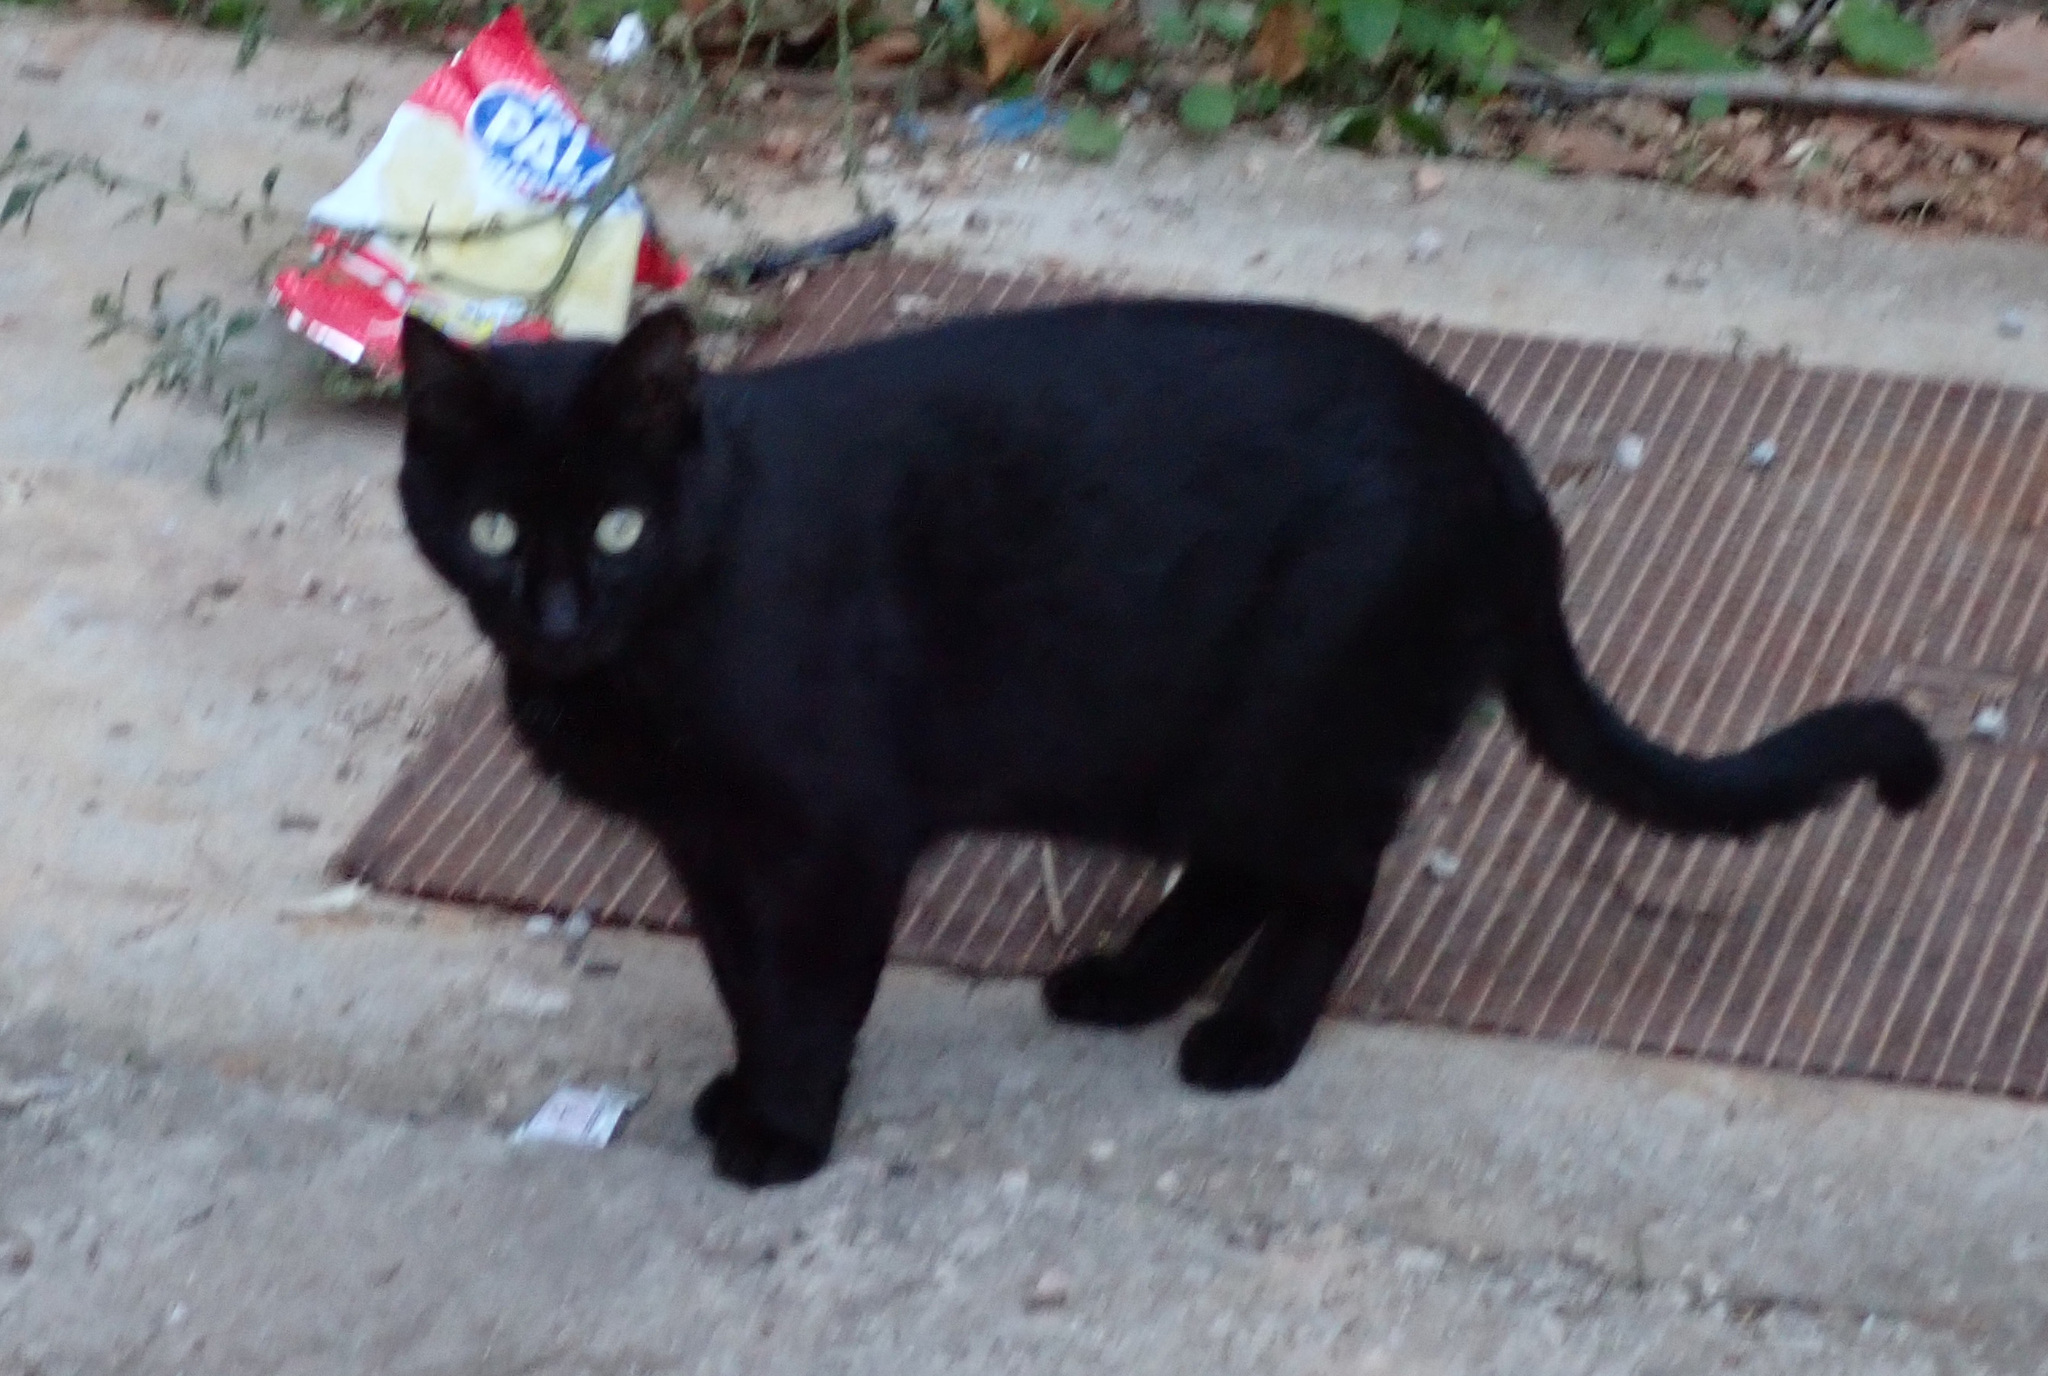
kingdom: Animalia
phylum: Chordata
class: Mammalia
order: Carnivora
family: Felidae
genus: Felis
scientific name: Felis catus
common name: Domestic cat
